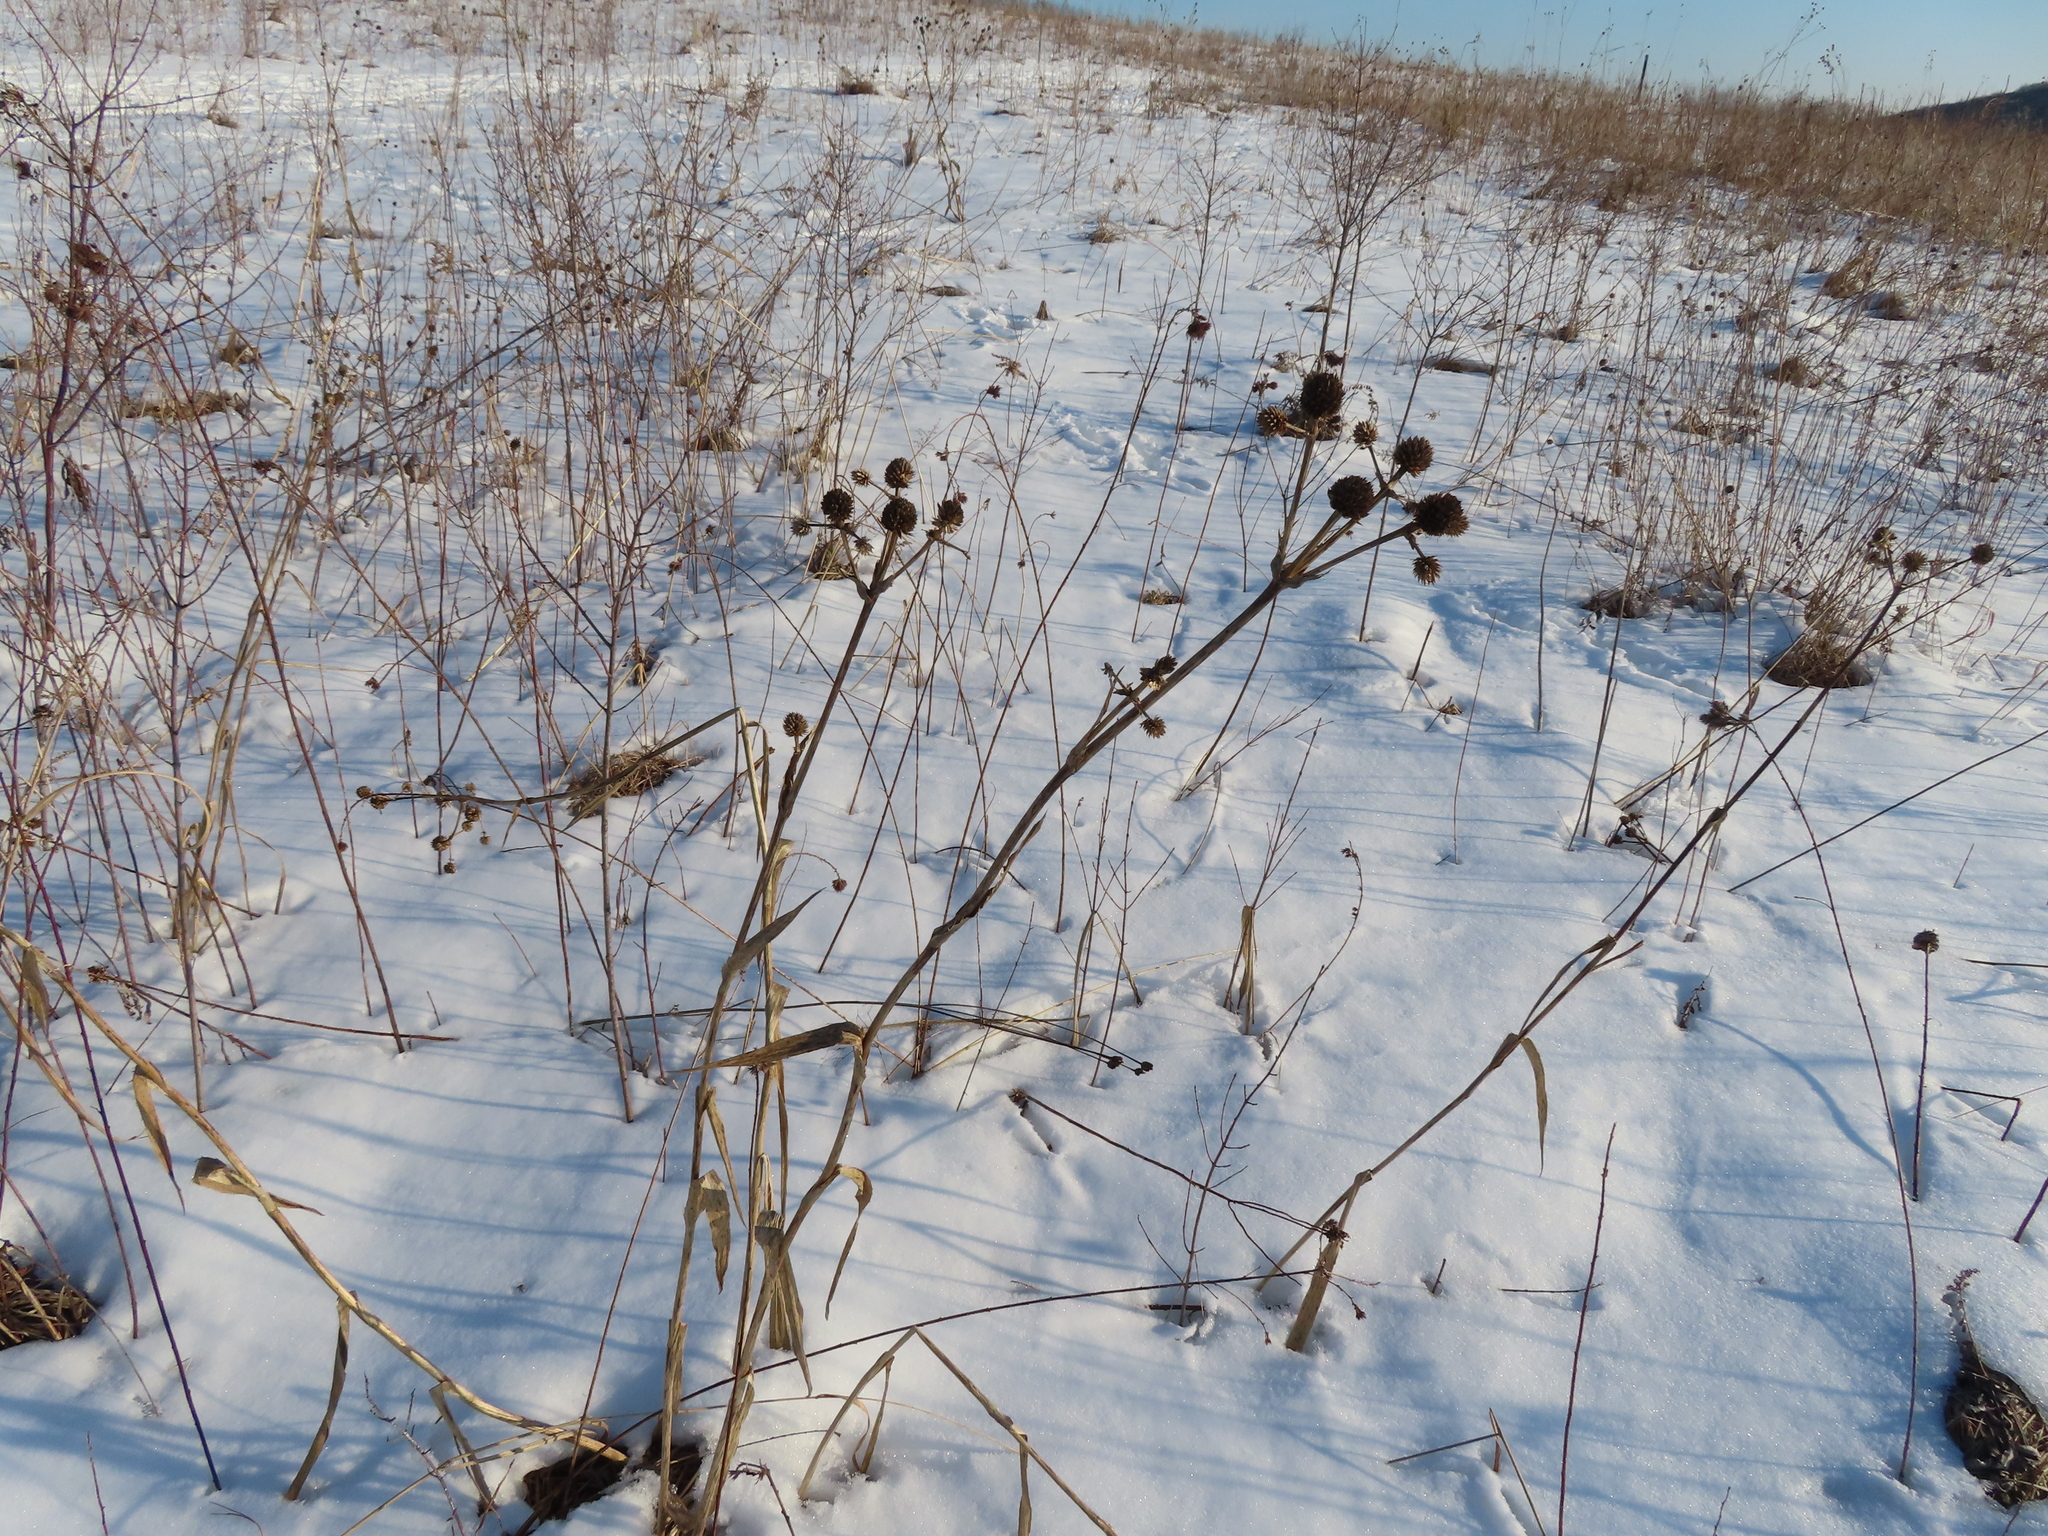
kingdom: Plantae
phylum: Tracheophyta
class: Magnoliopsida
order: Apiales
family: Apiaceae
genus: Eryngium
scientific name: Eryngium yuccifolium
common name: Button eryngo
